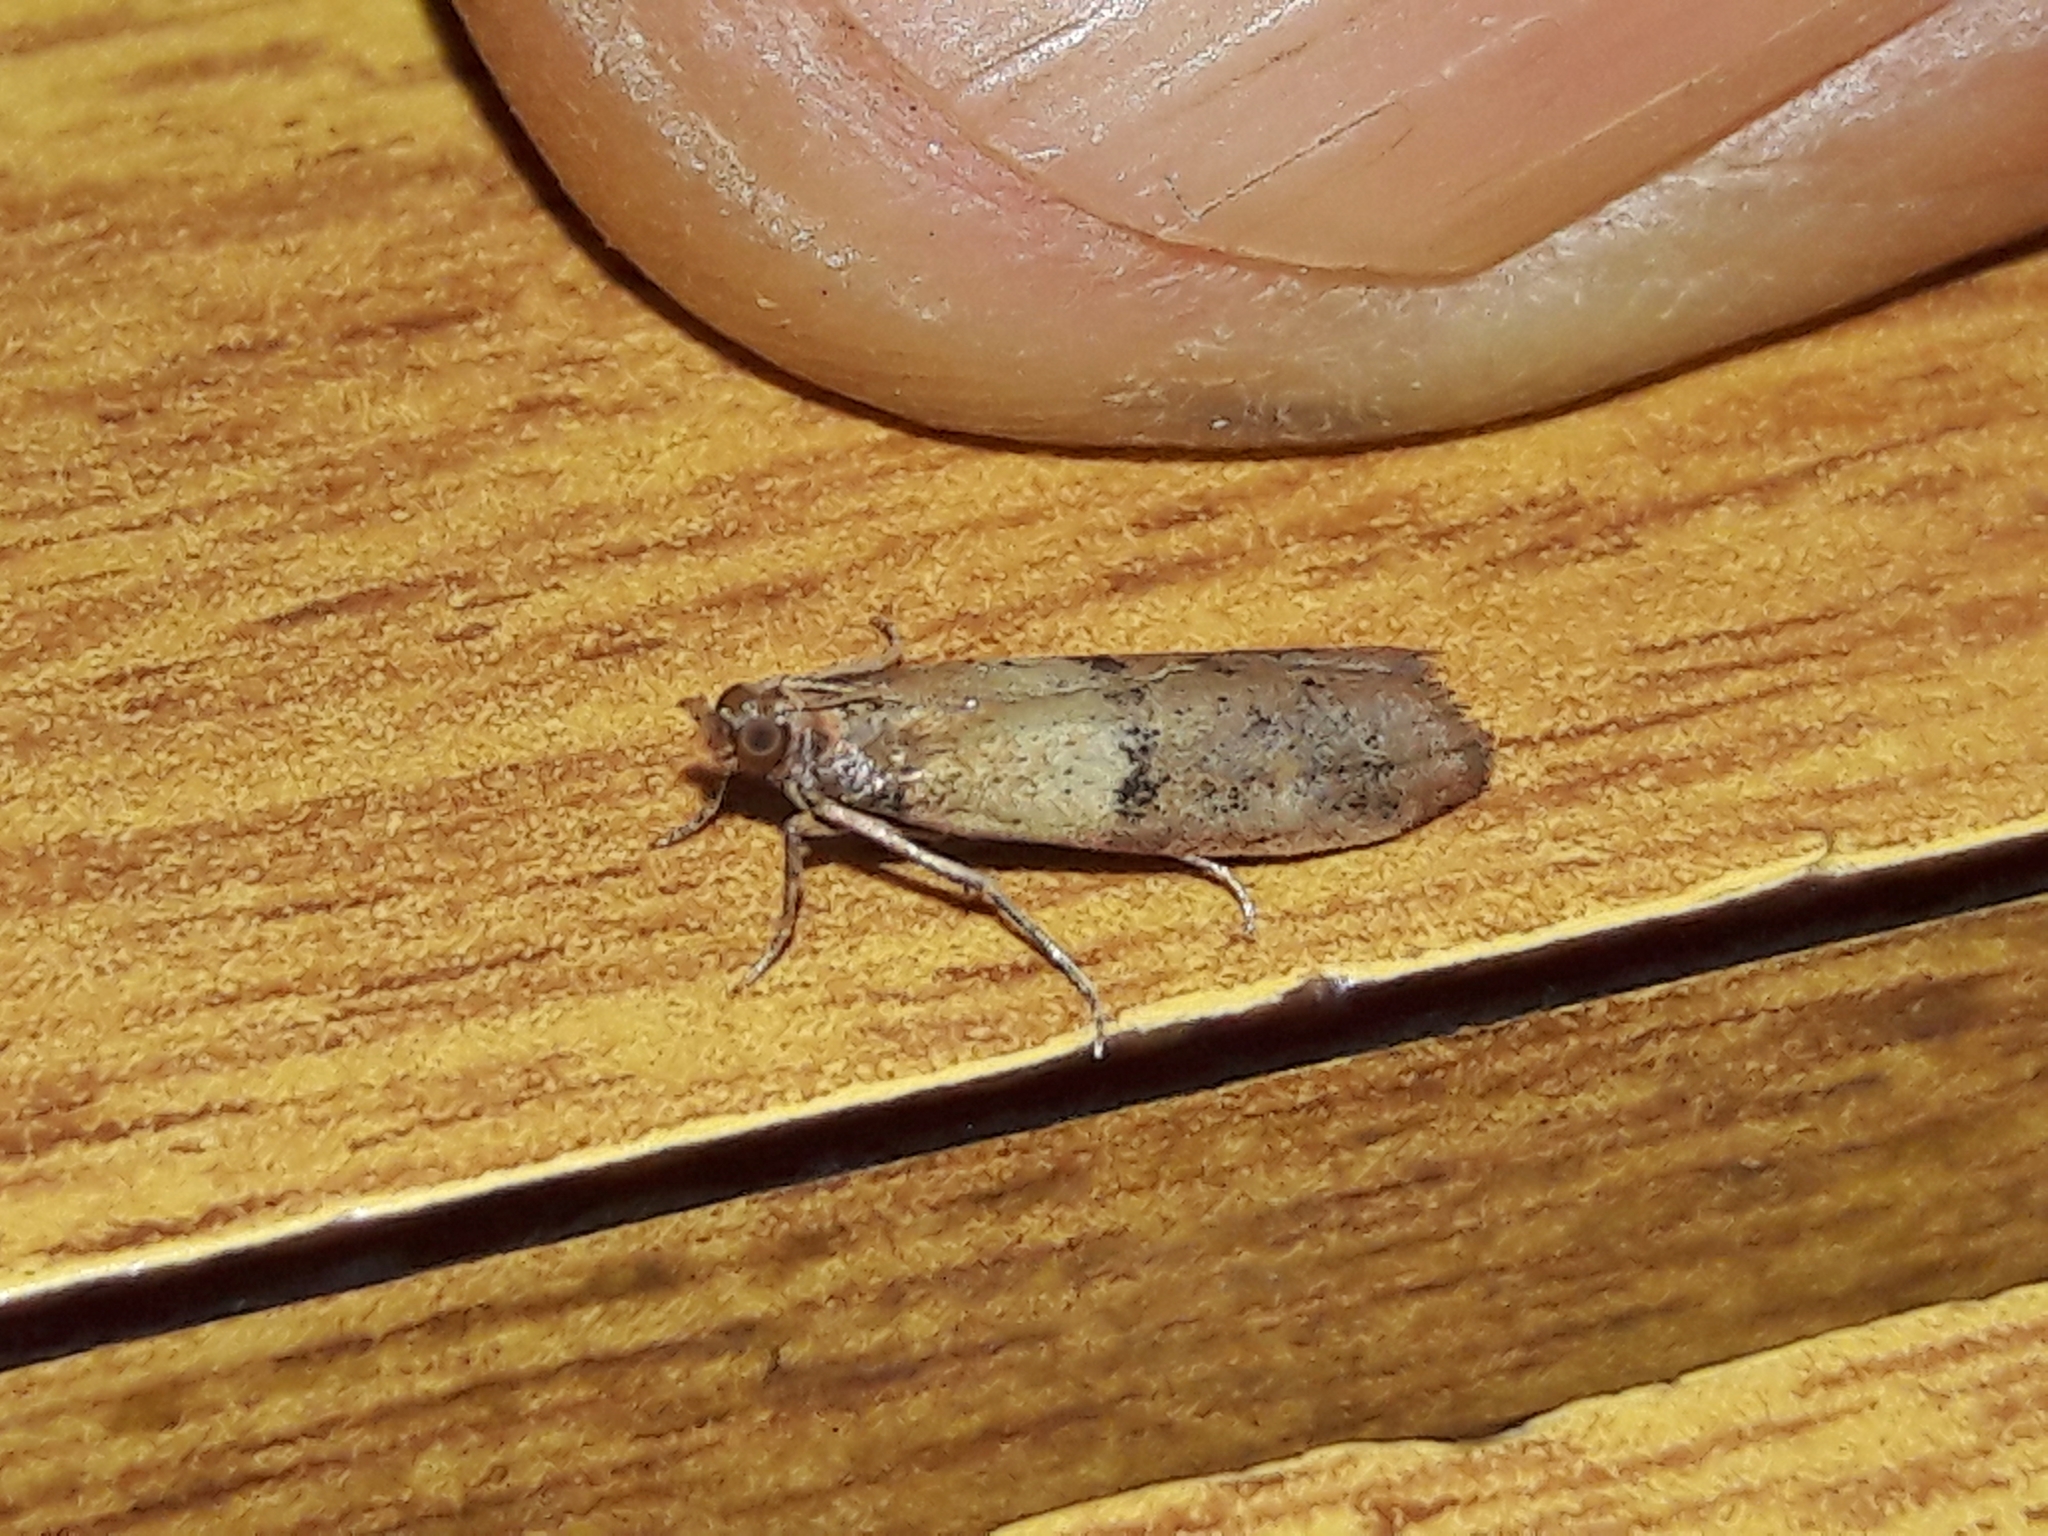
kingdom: Animalia
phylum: Arthropoda
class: Insecta
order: Lepidoptera
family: Pyralidae
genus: Plodia
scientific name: Plodia interpunctella
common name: Indian meal moth
